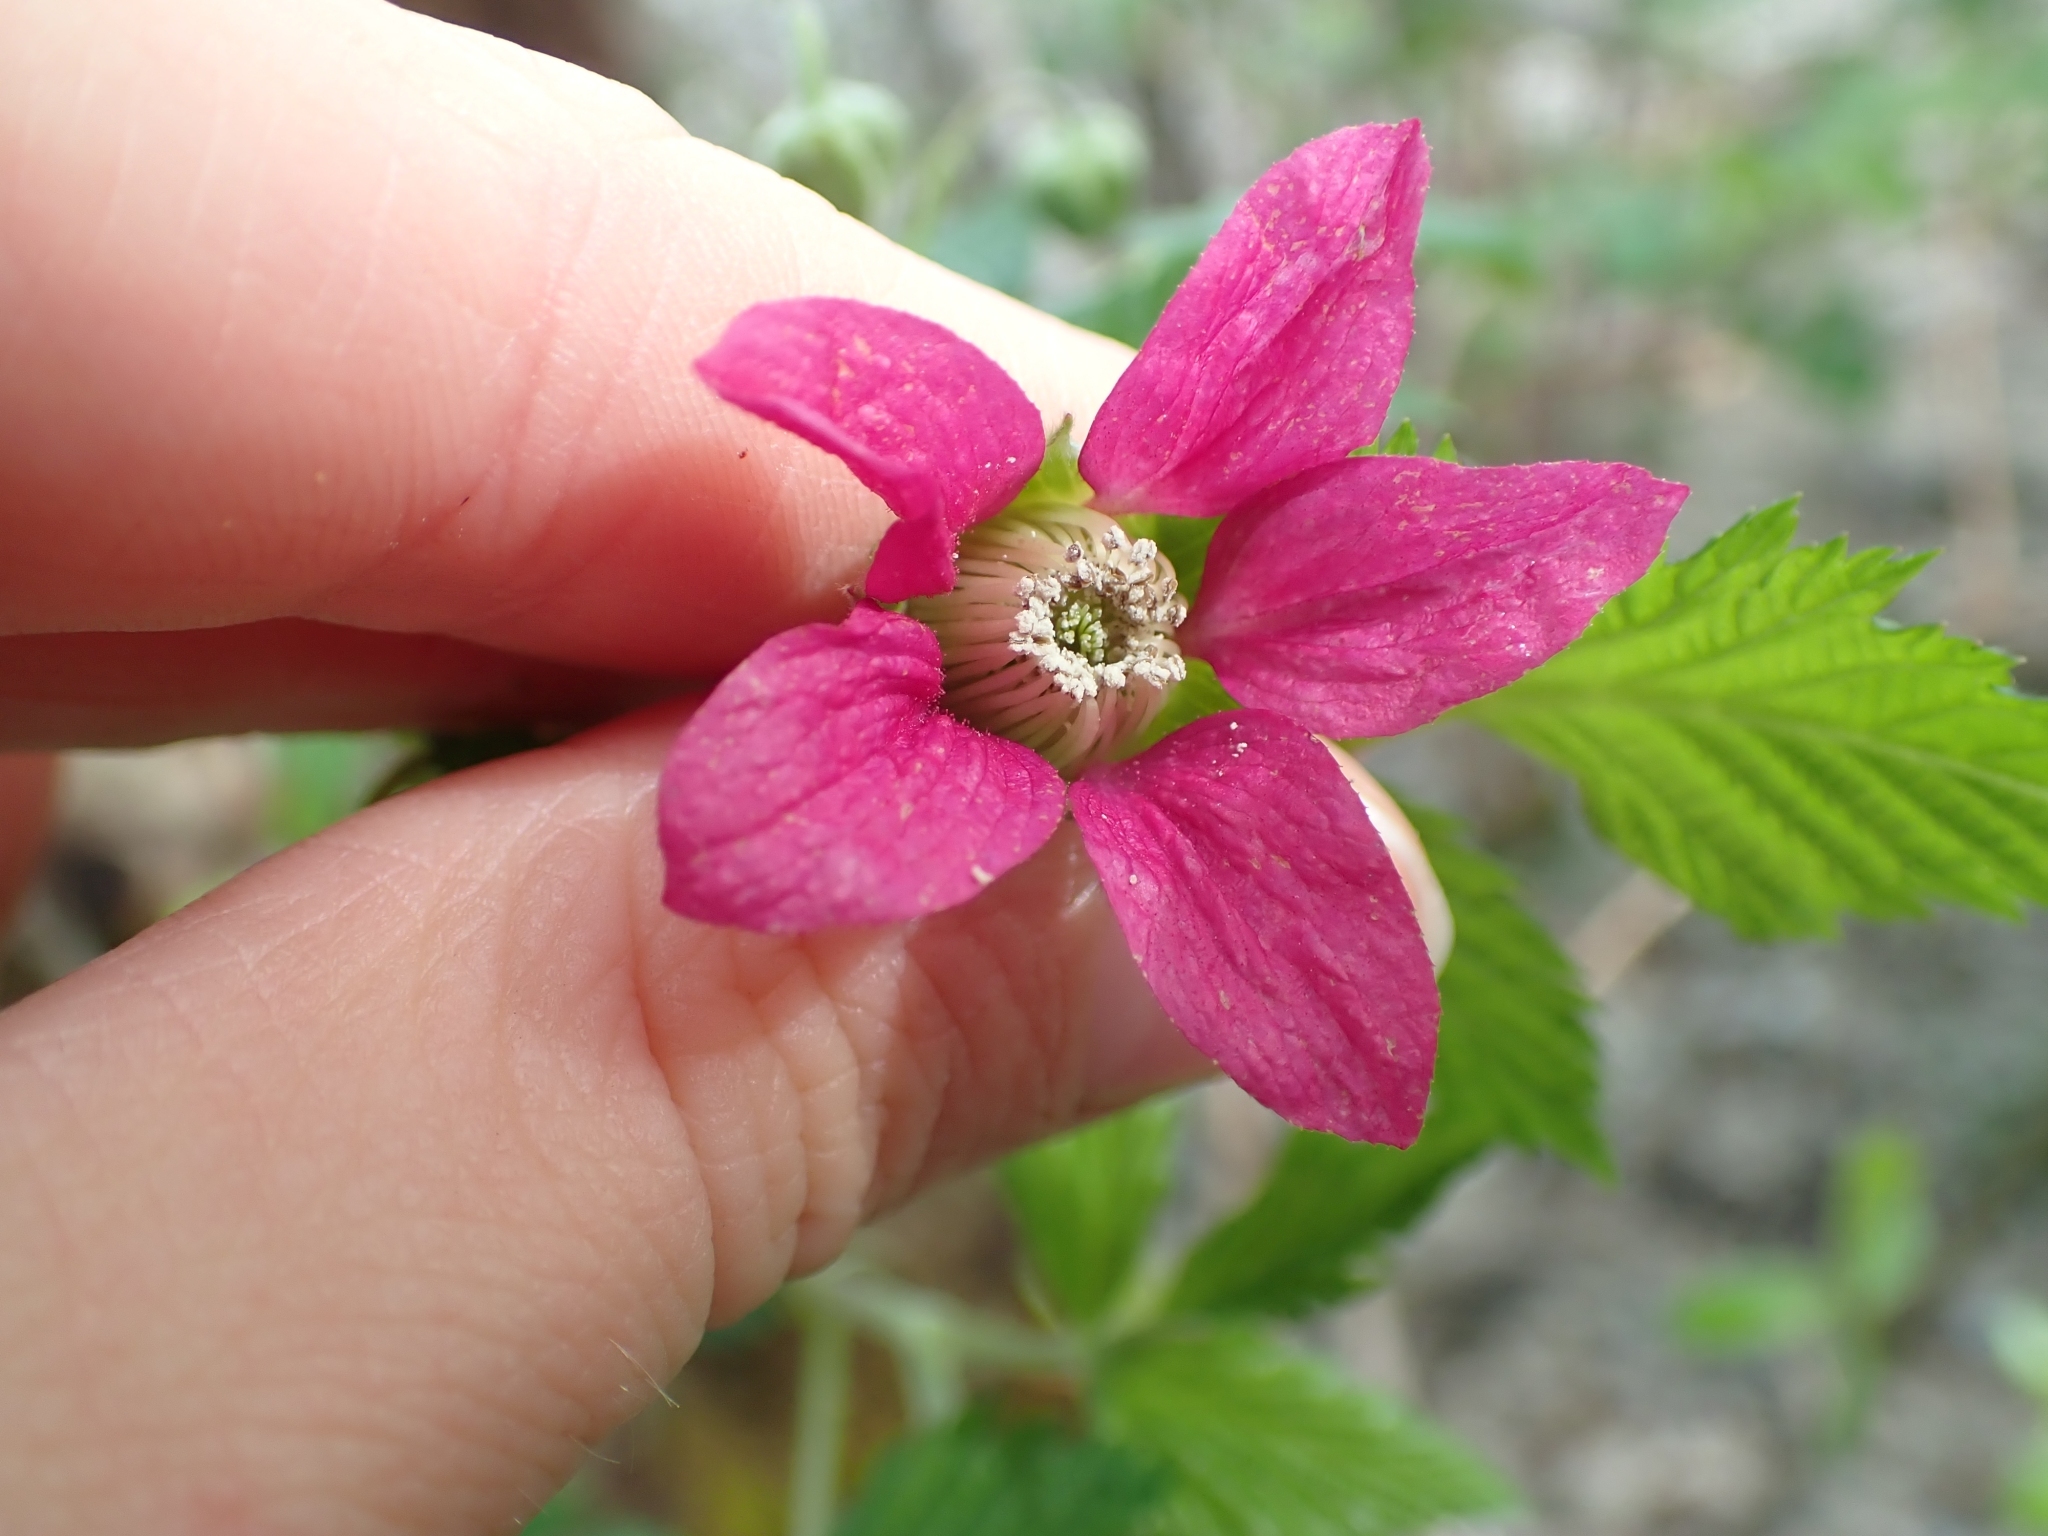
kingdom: Plantae
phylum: Tracheophyta
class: Magnoliopsida
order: Rosales
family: Rosaceae
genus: Rubus
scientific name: Rubus spectabilis
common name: Salmonberry
